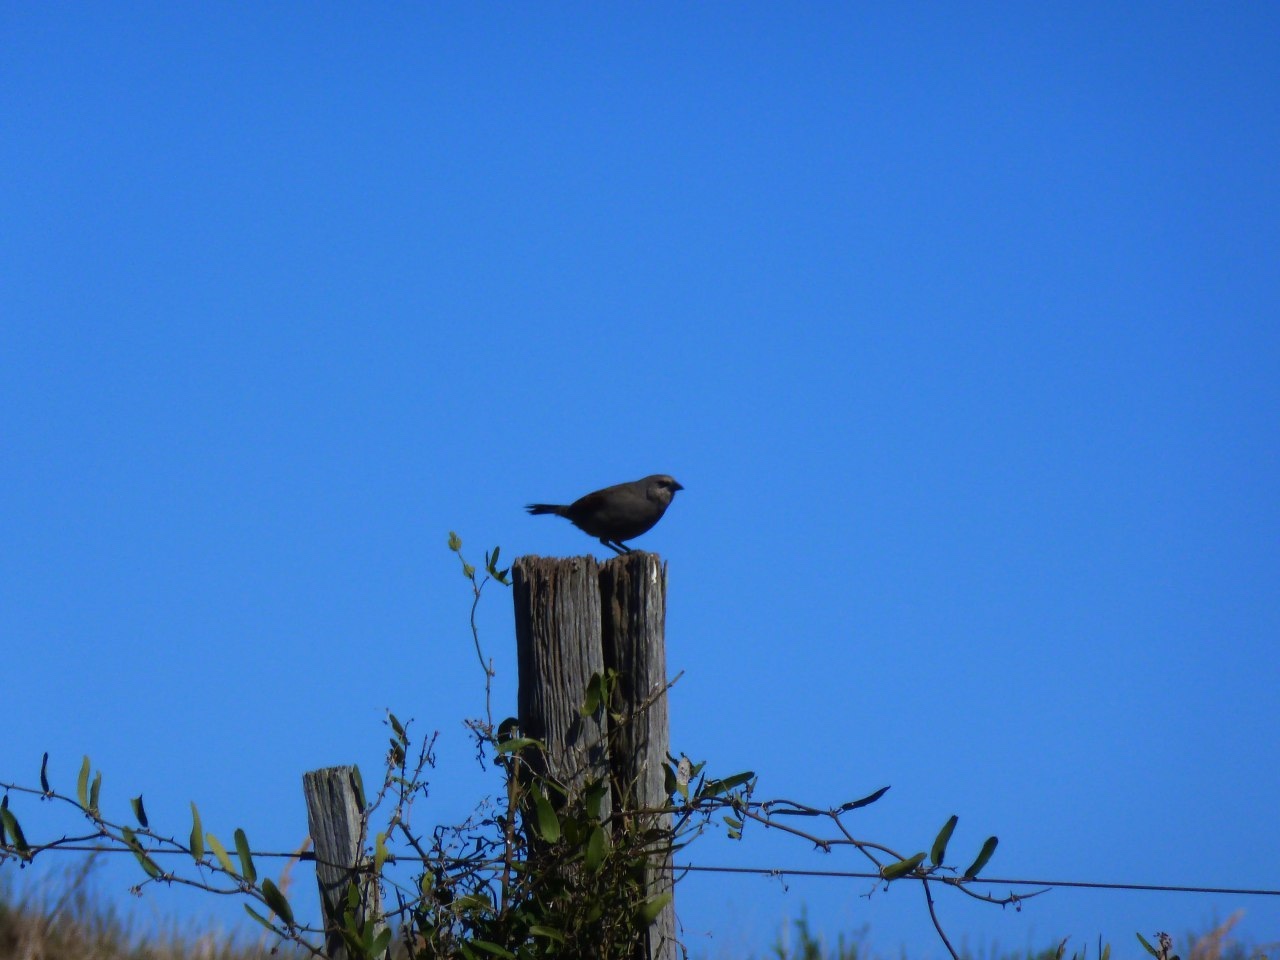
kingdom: Animalia
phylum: Chordata
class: Aves
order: Passeriformes
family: Icteridae
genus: Agelaioides
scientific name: Agelaioides badius
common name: Baywing
